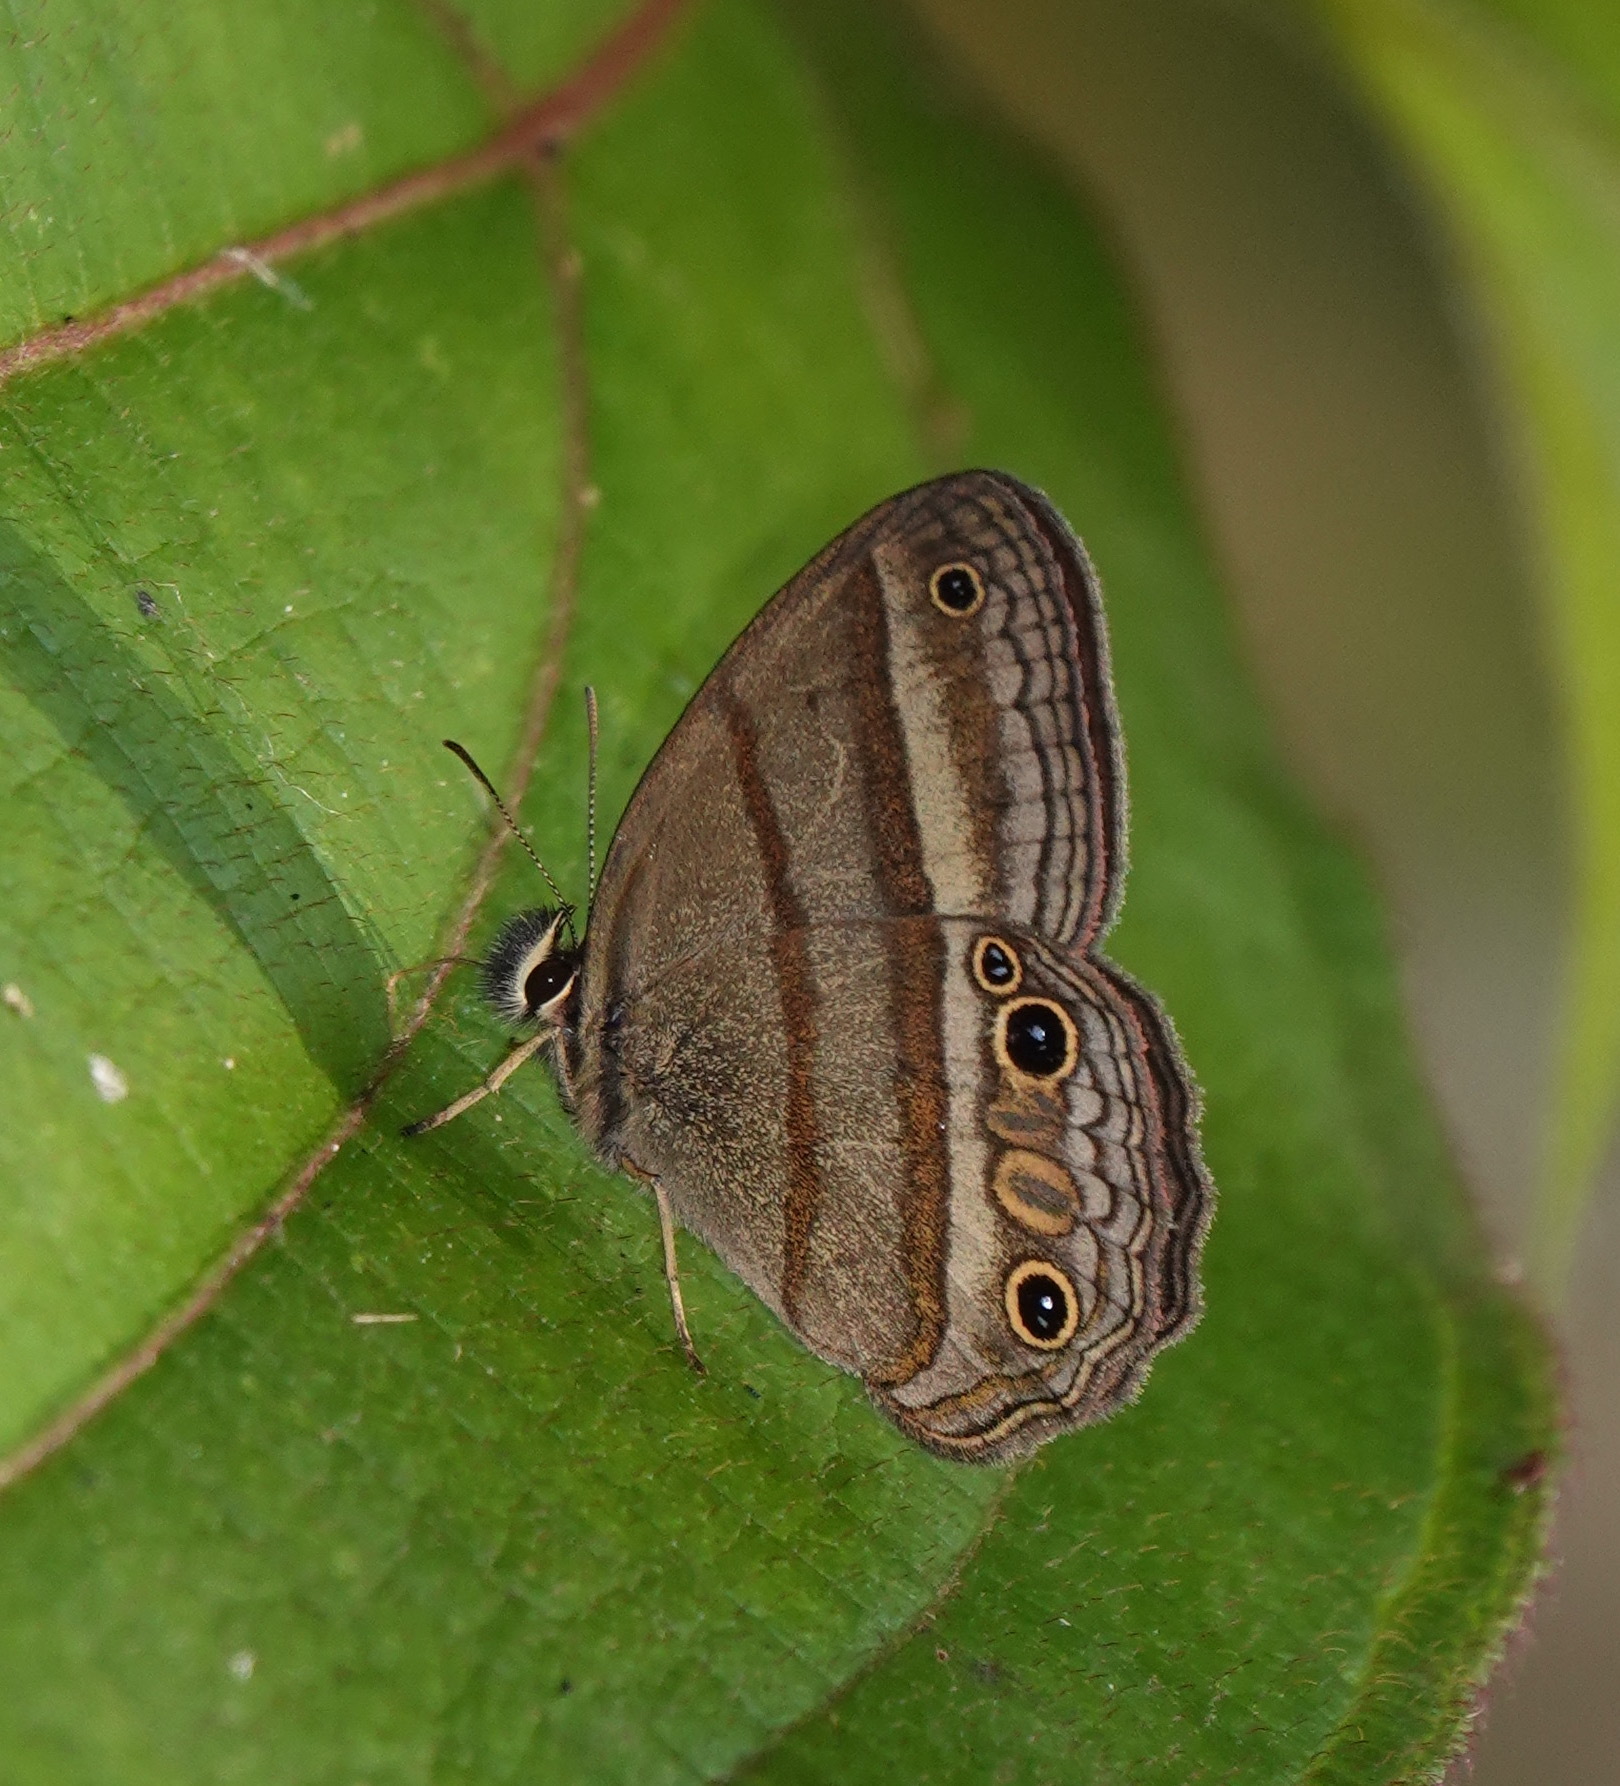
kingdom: Animalia
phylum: Arthropoda
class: Insecta
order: Lepidoptera
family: Nymphalidae
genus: Euptychia
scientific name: Euptychia Cissia proba
